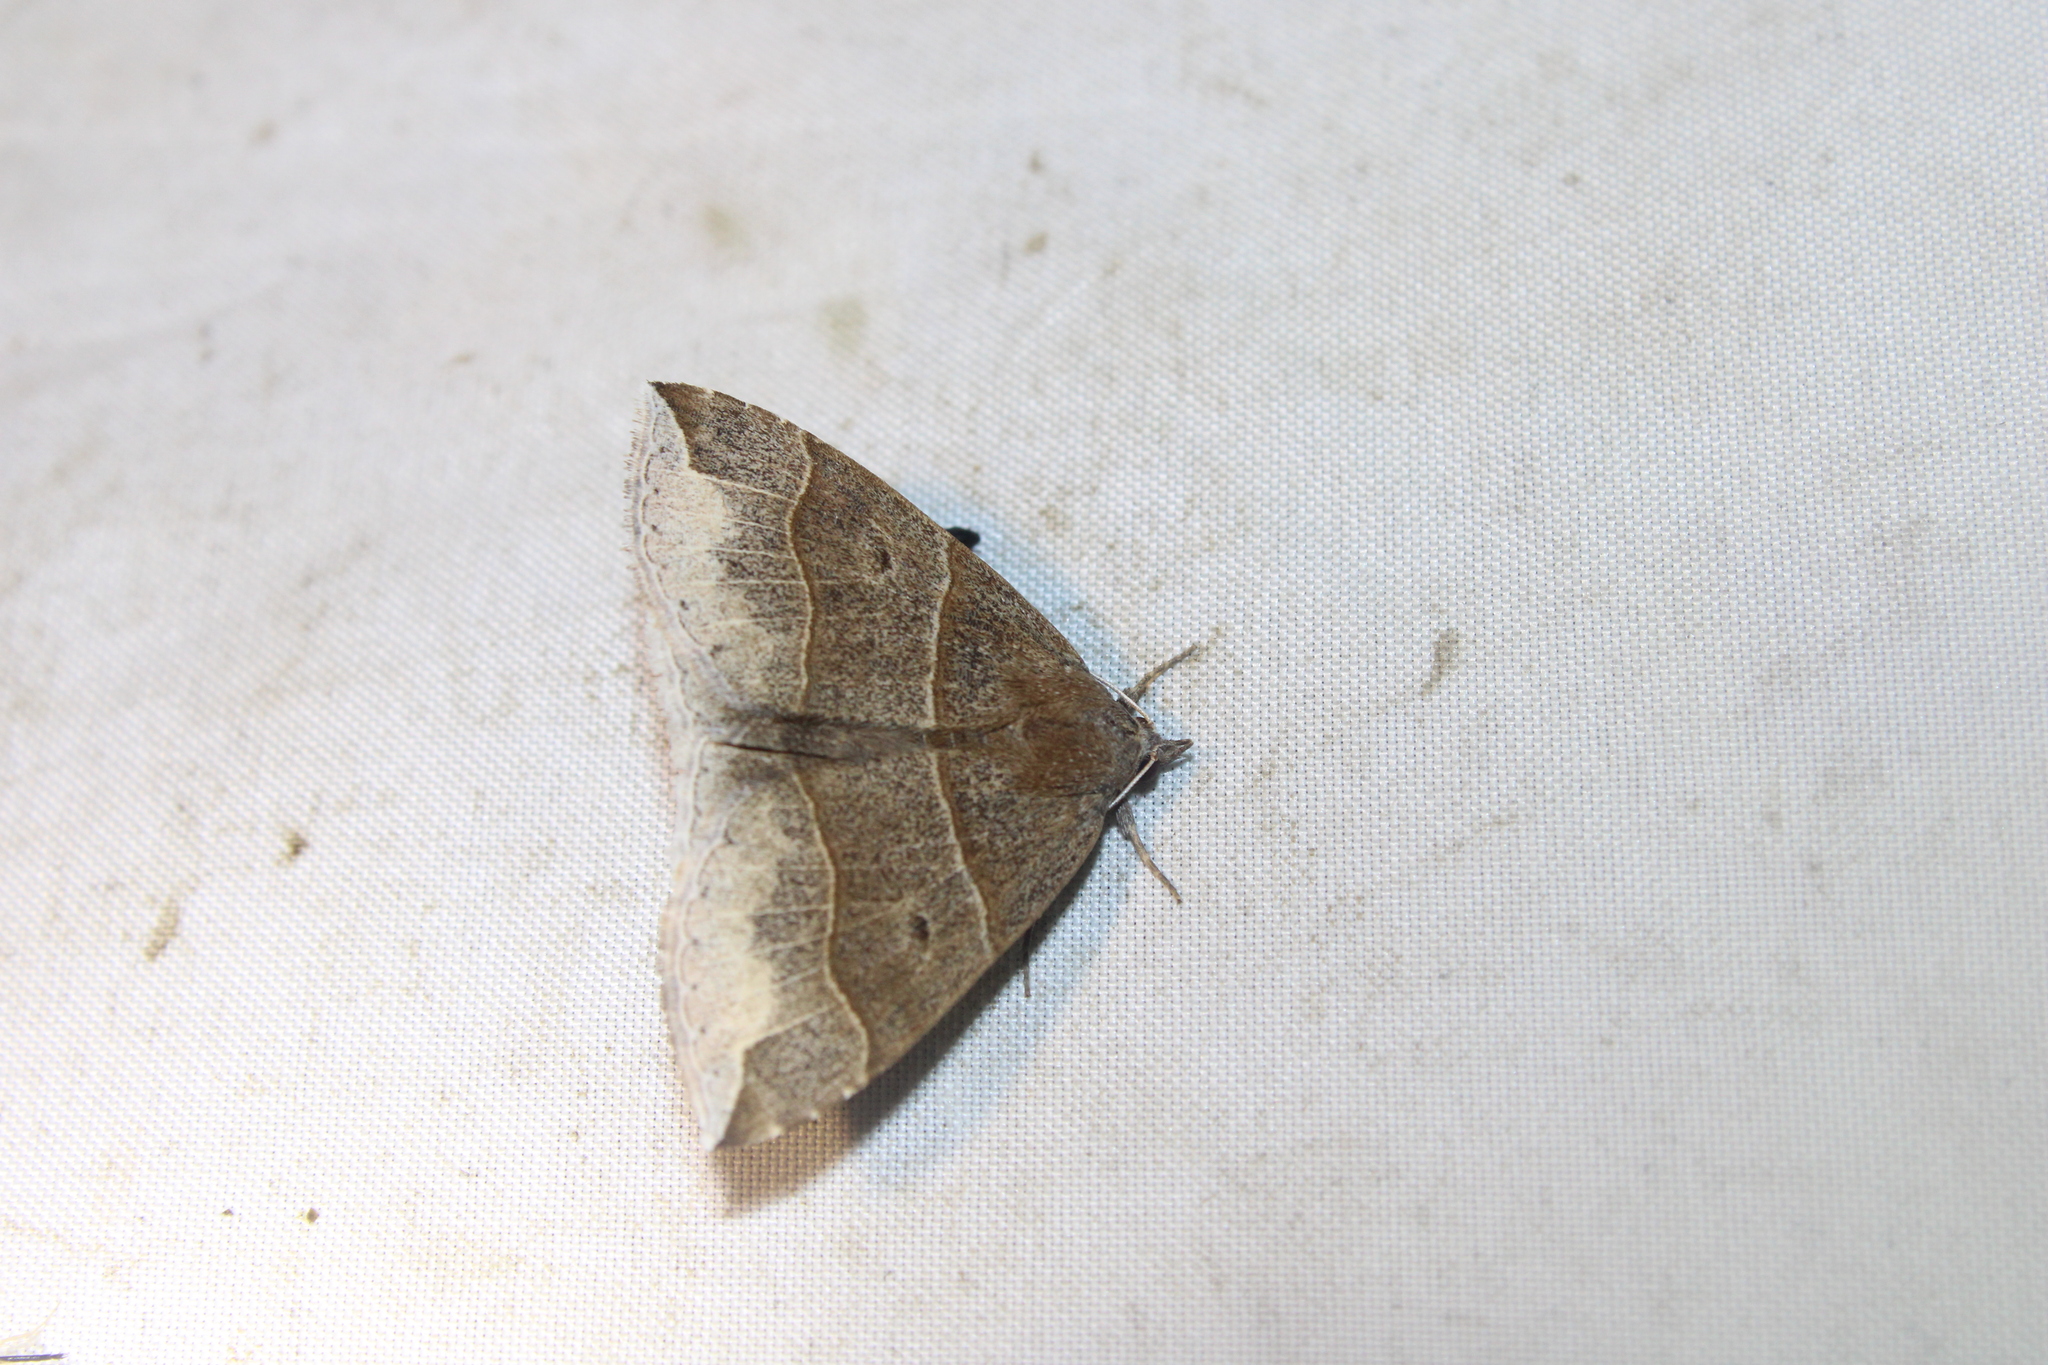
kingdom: Animalia
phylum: Arthropoda
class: Insecta
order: Lepidoptera
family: Erebidae
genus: Parallelia
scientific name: Parallelia bistriaris
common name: Maple looper moth
